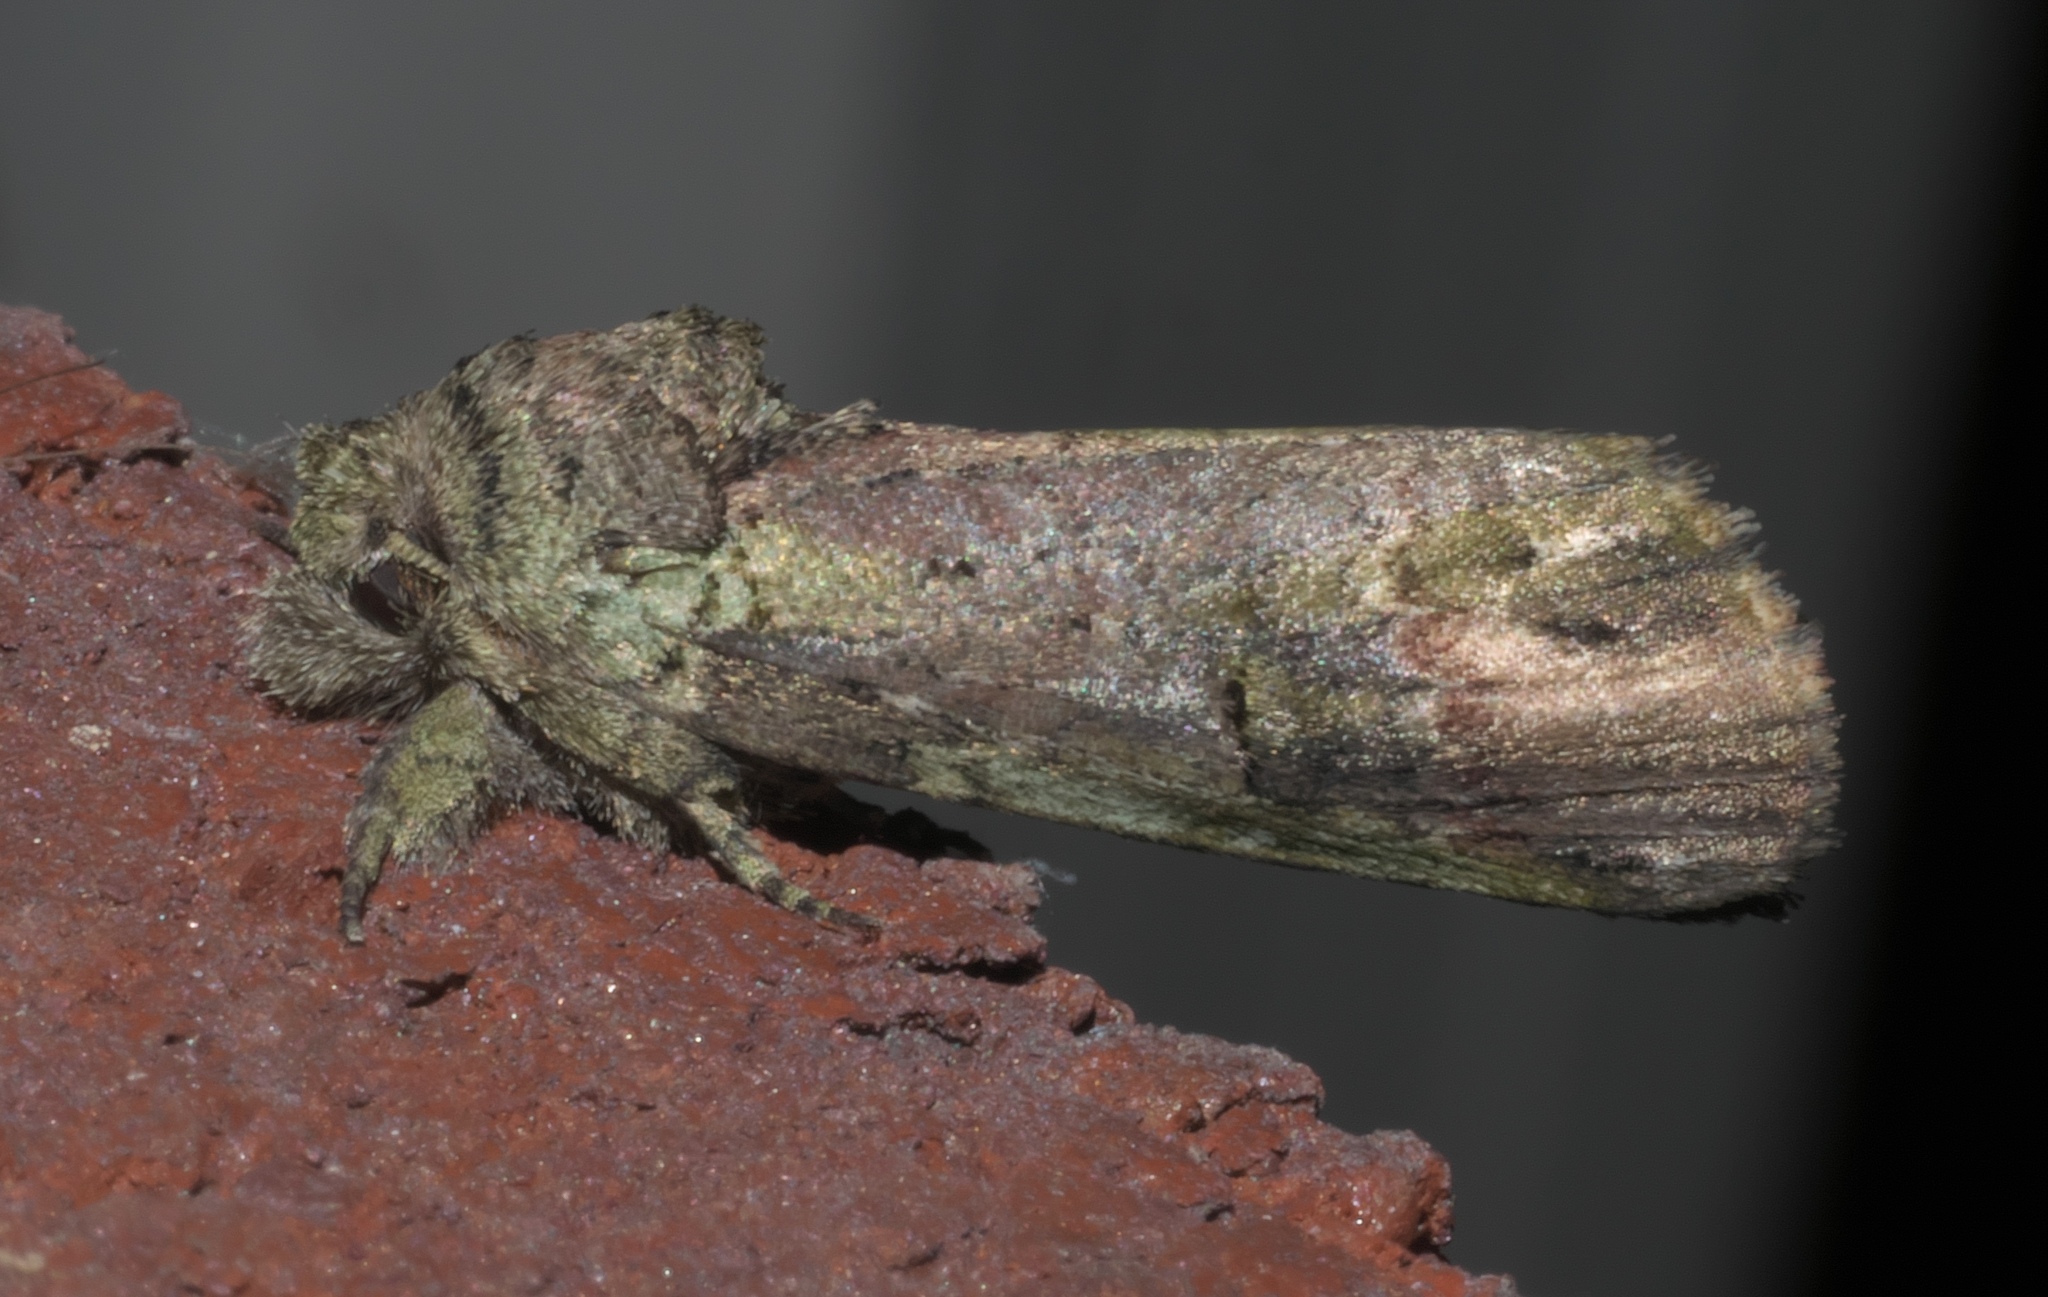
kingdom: Animalia
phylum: Arthropoda
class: Insecta
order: Lepidoptera
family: Notodontidae
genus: Schizura
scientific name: Schizura
